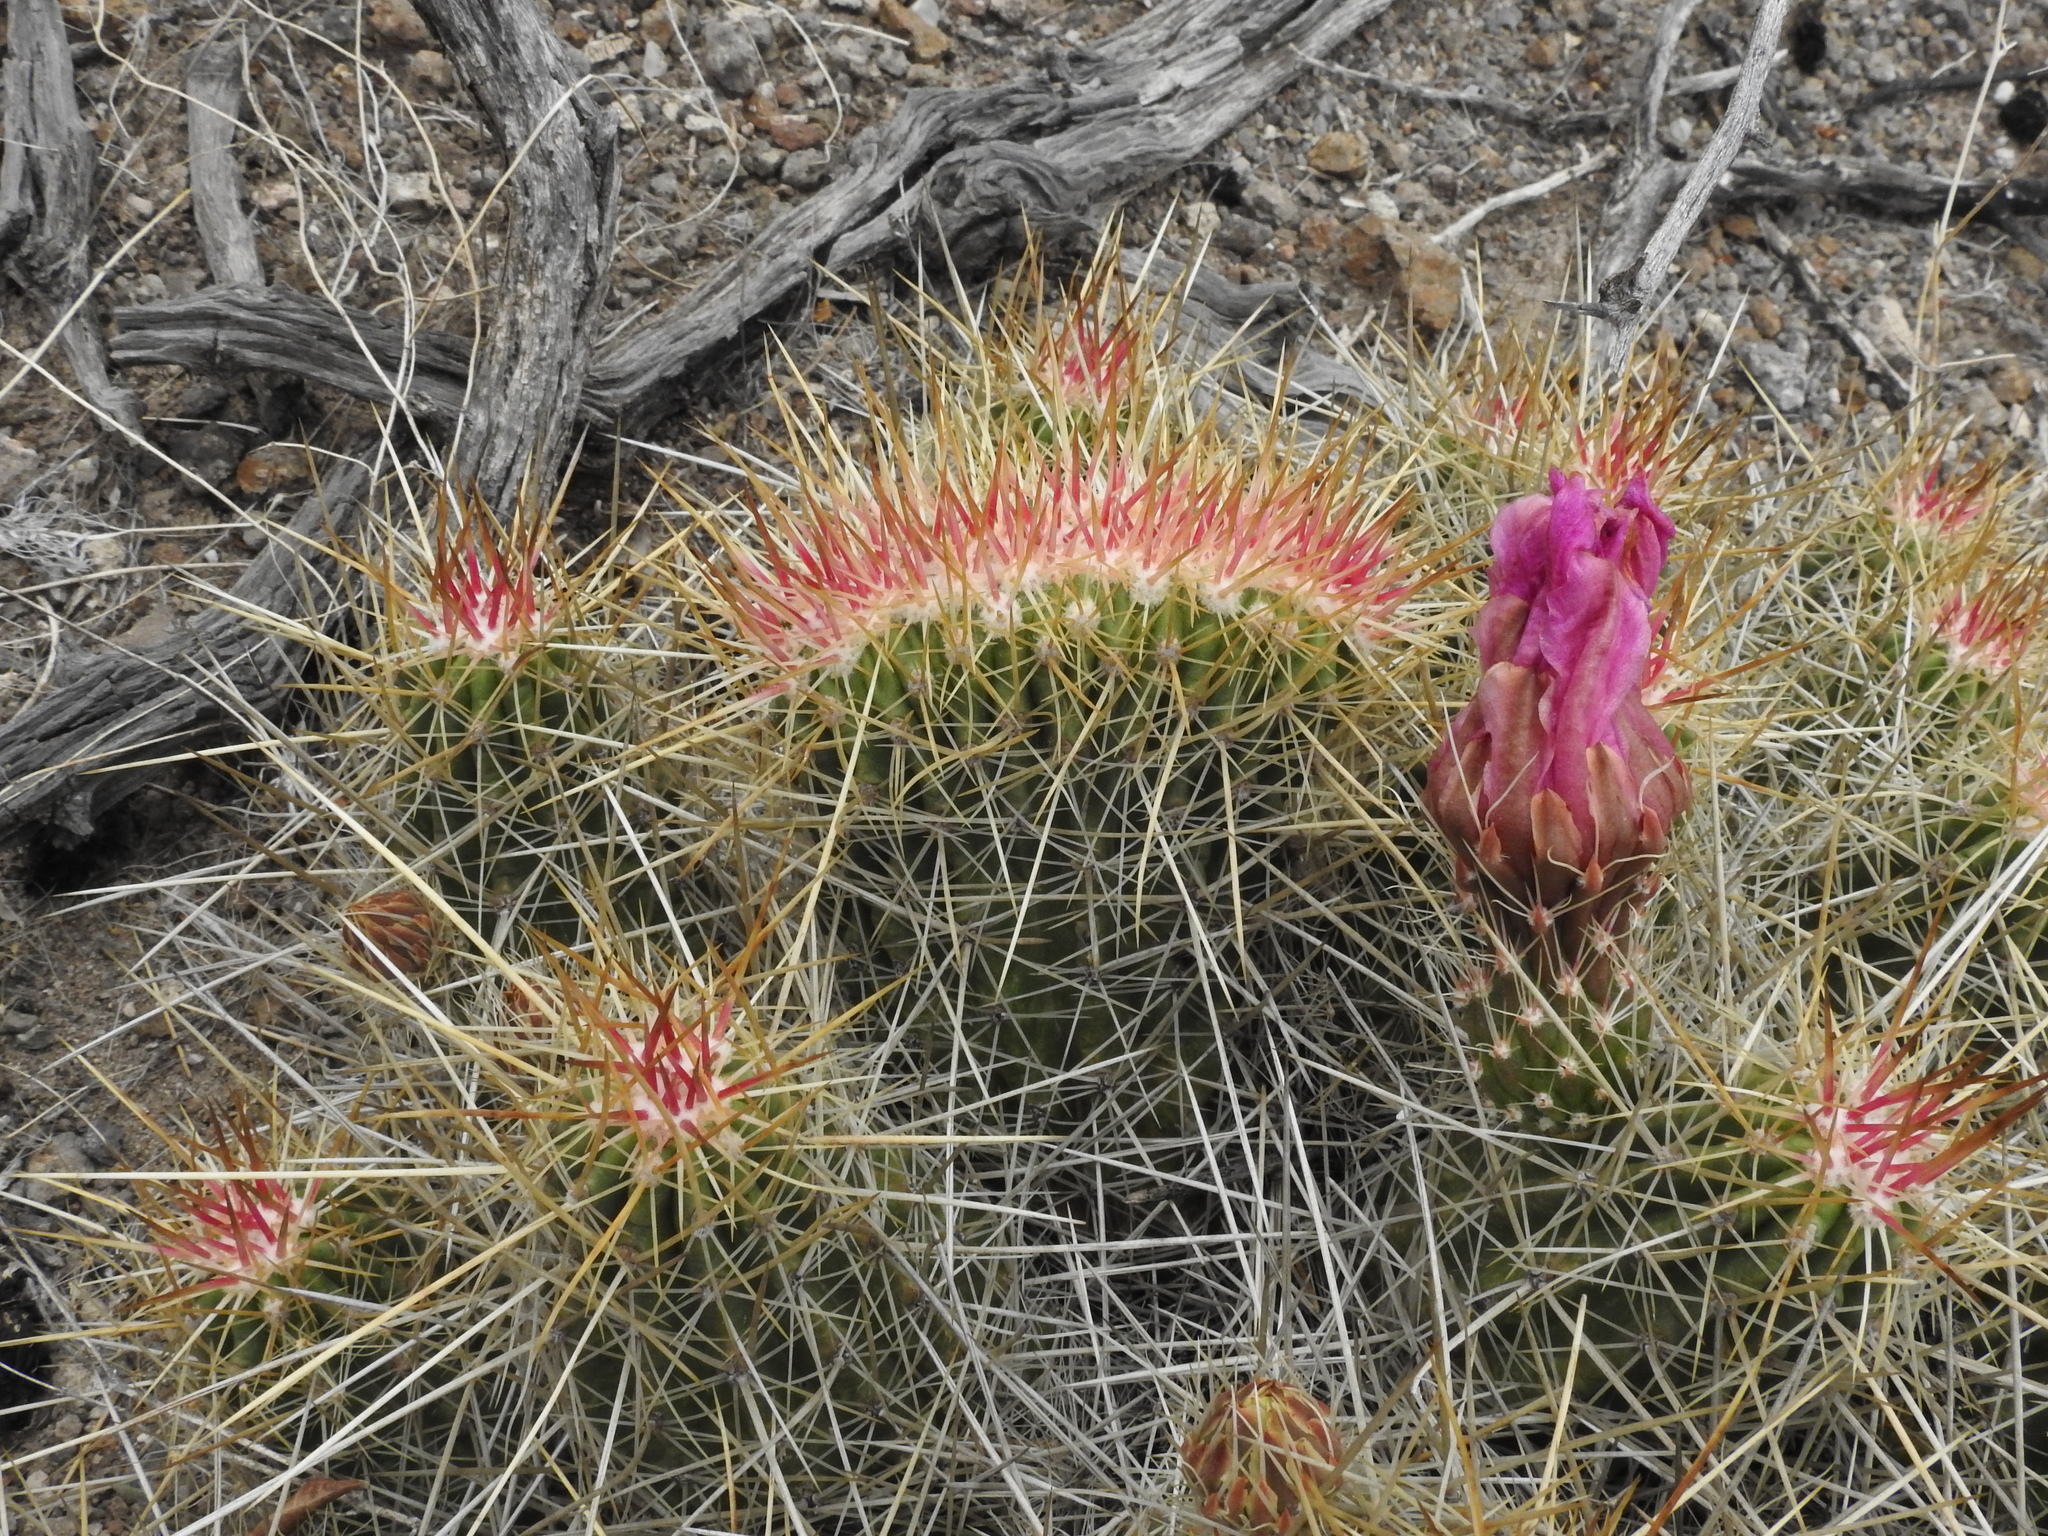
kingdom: Plantae
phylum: Tracheophyta
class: Magnoliopsida
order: Caryophyllales
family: Cactaceae
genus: Echinocereus
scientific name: Echinocereus stramineus
